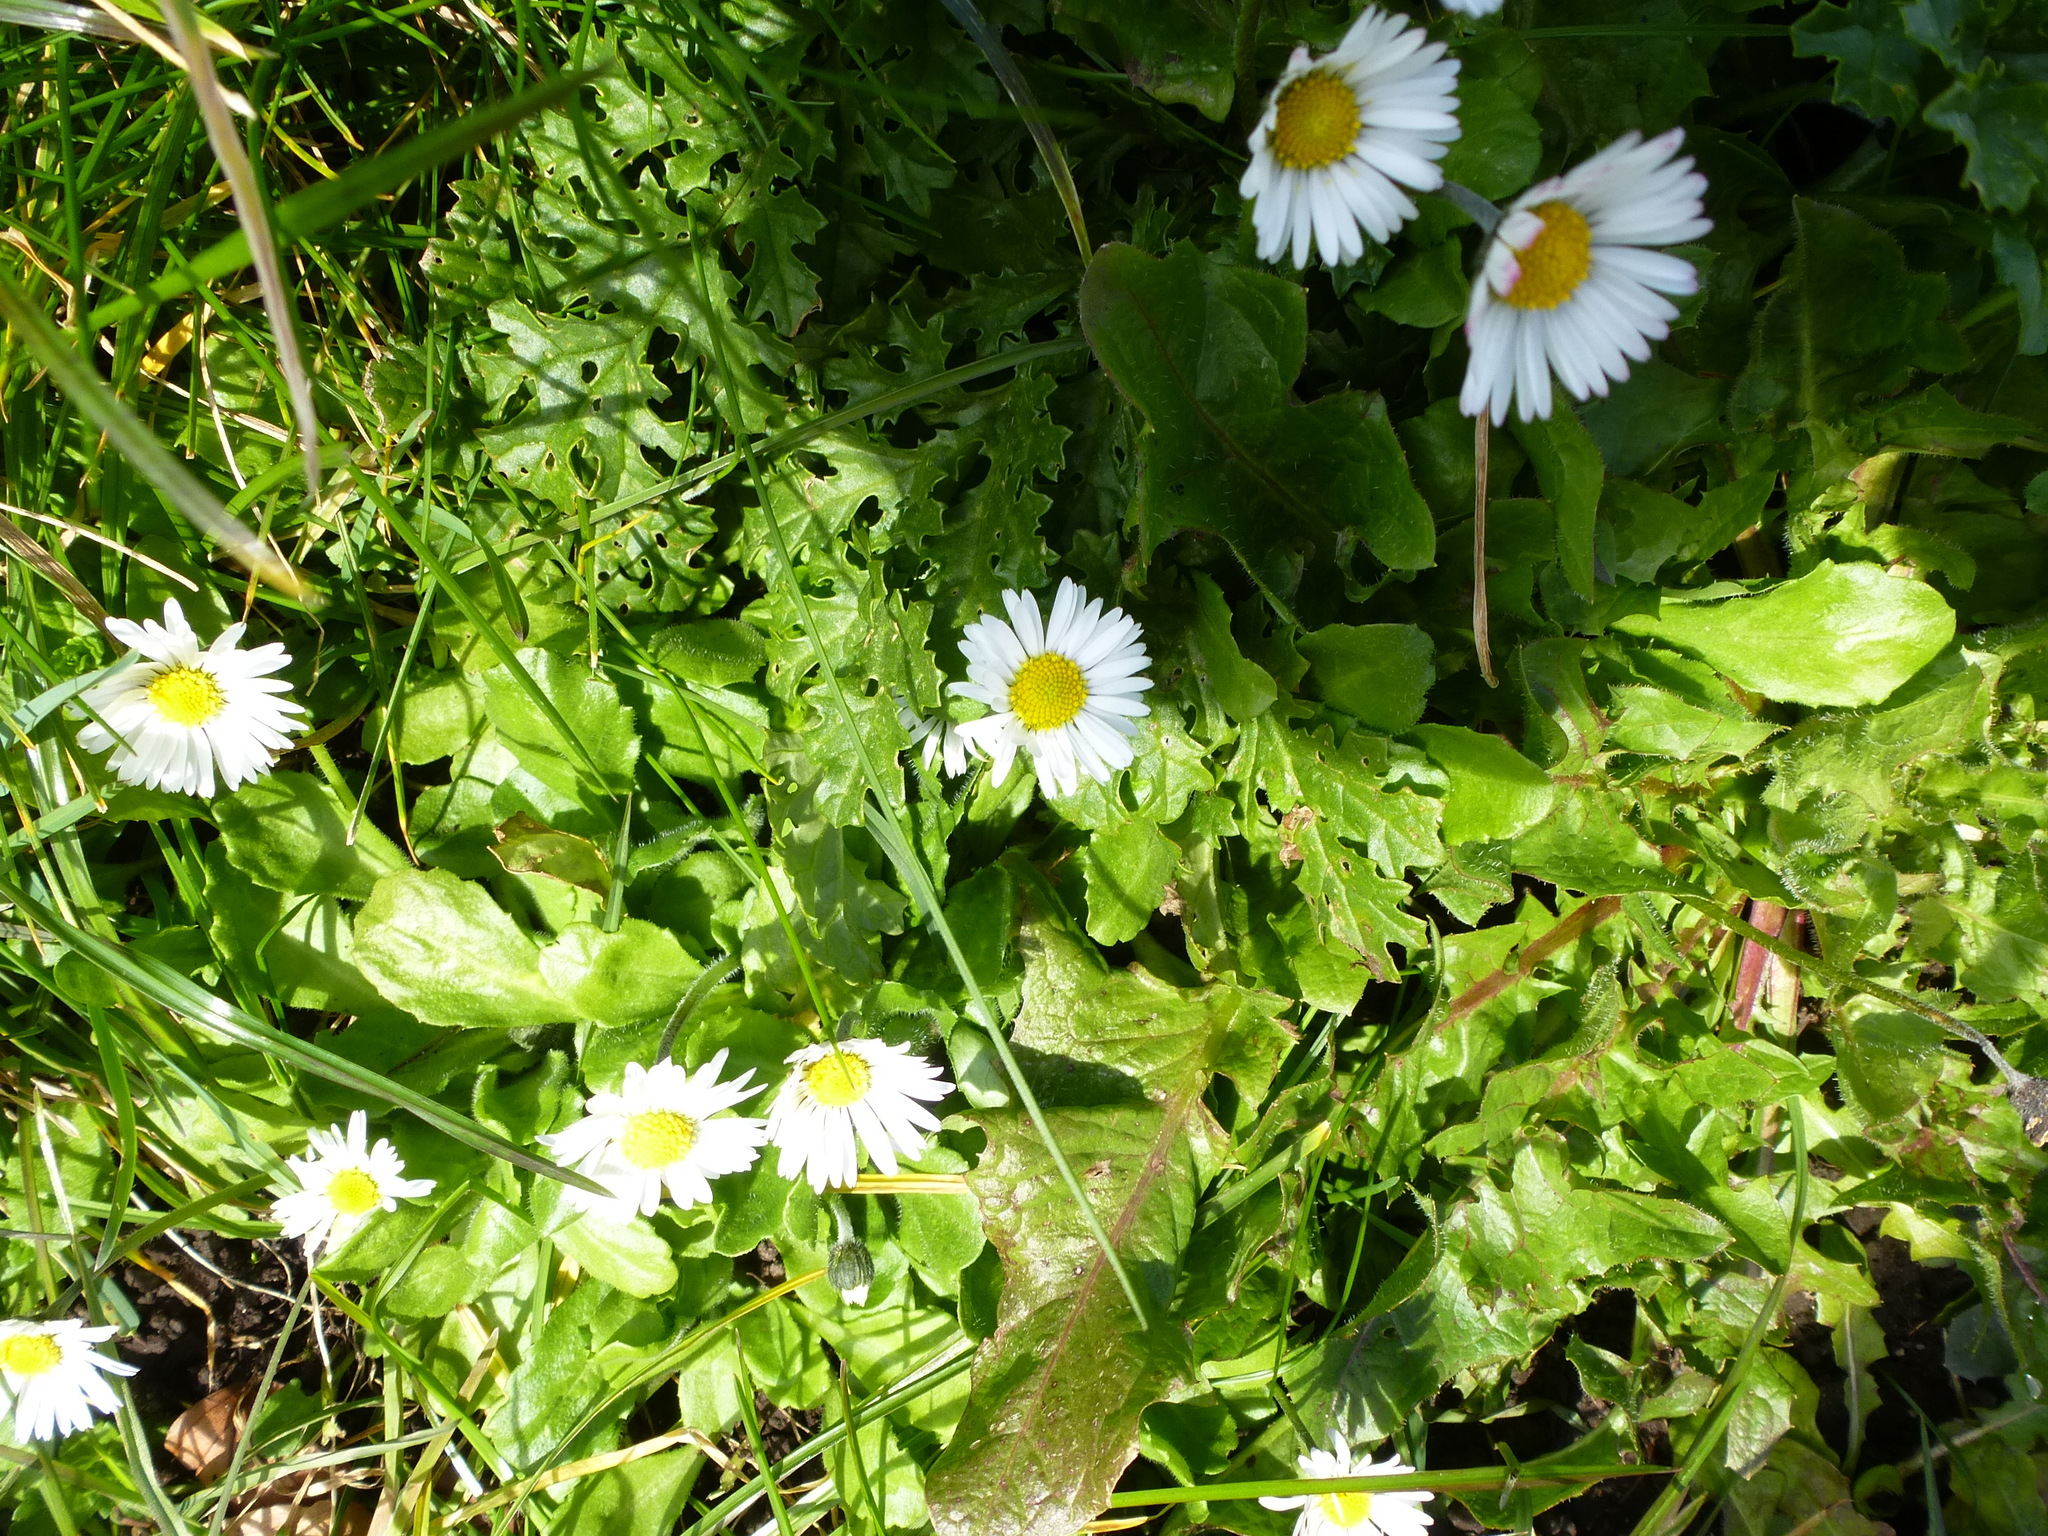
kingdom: Plantae
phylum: Tracheophyta
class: Magnoliopsida
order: Asterales
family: Asteraceae
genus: Bellis
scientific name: Bellis perennis
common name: Lawndaisy
